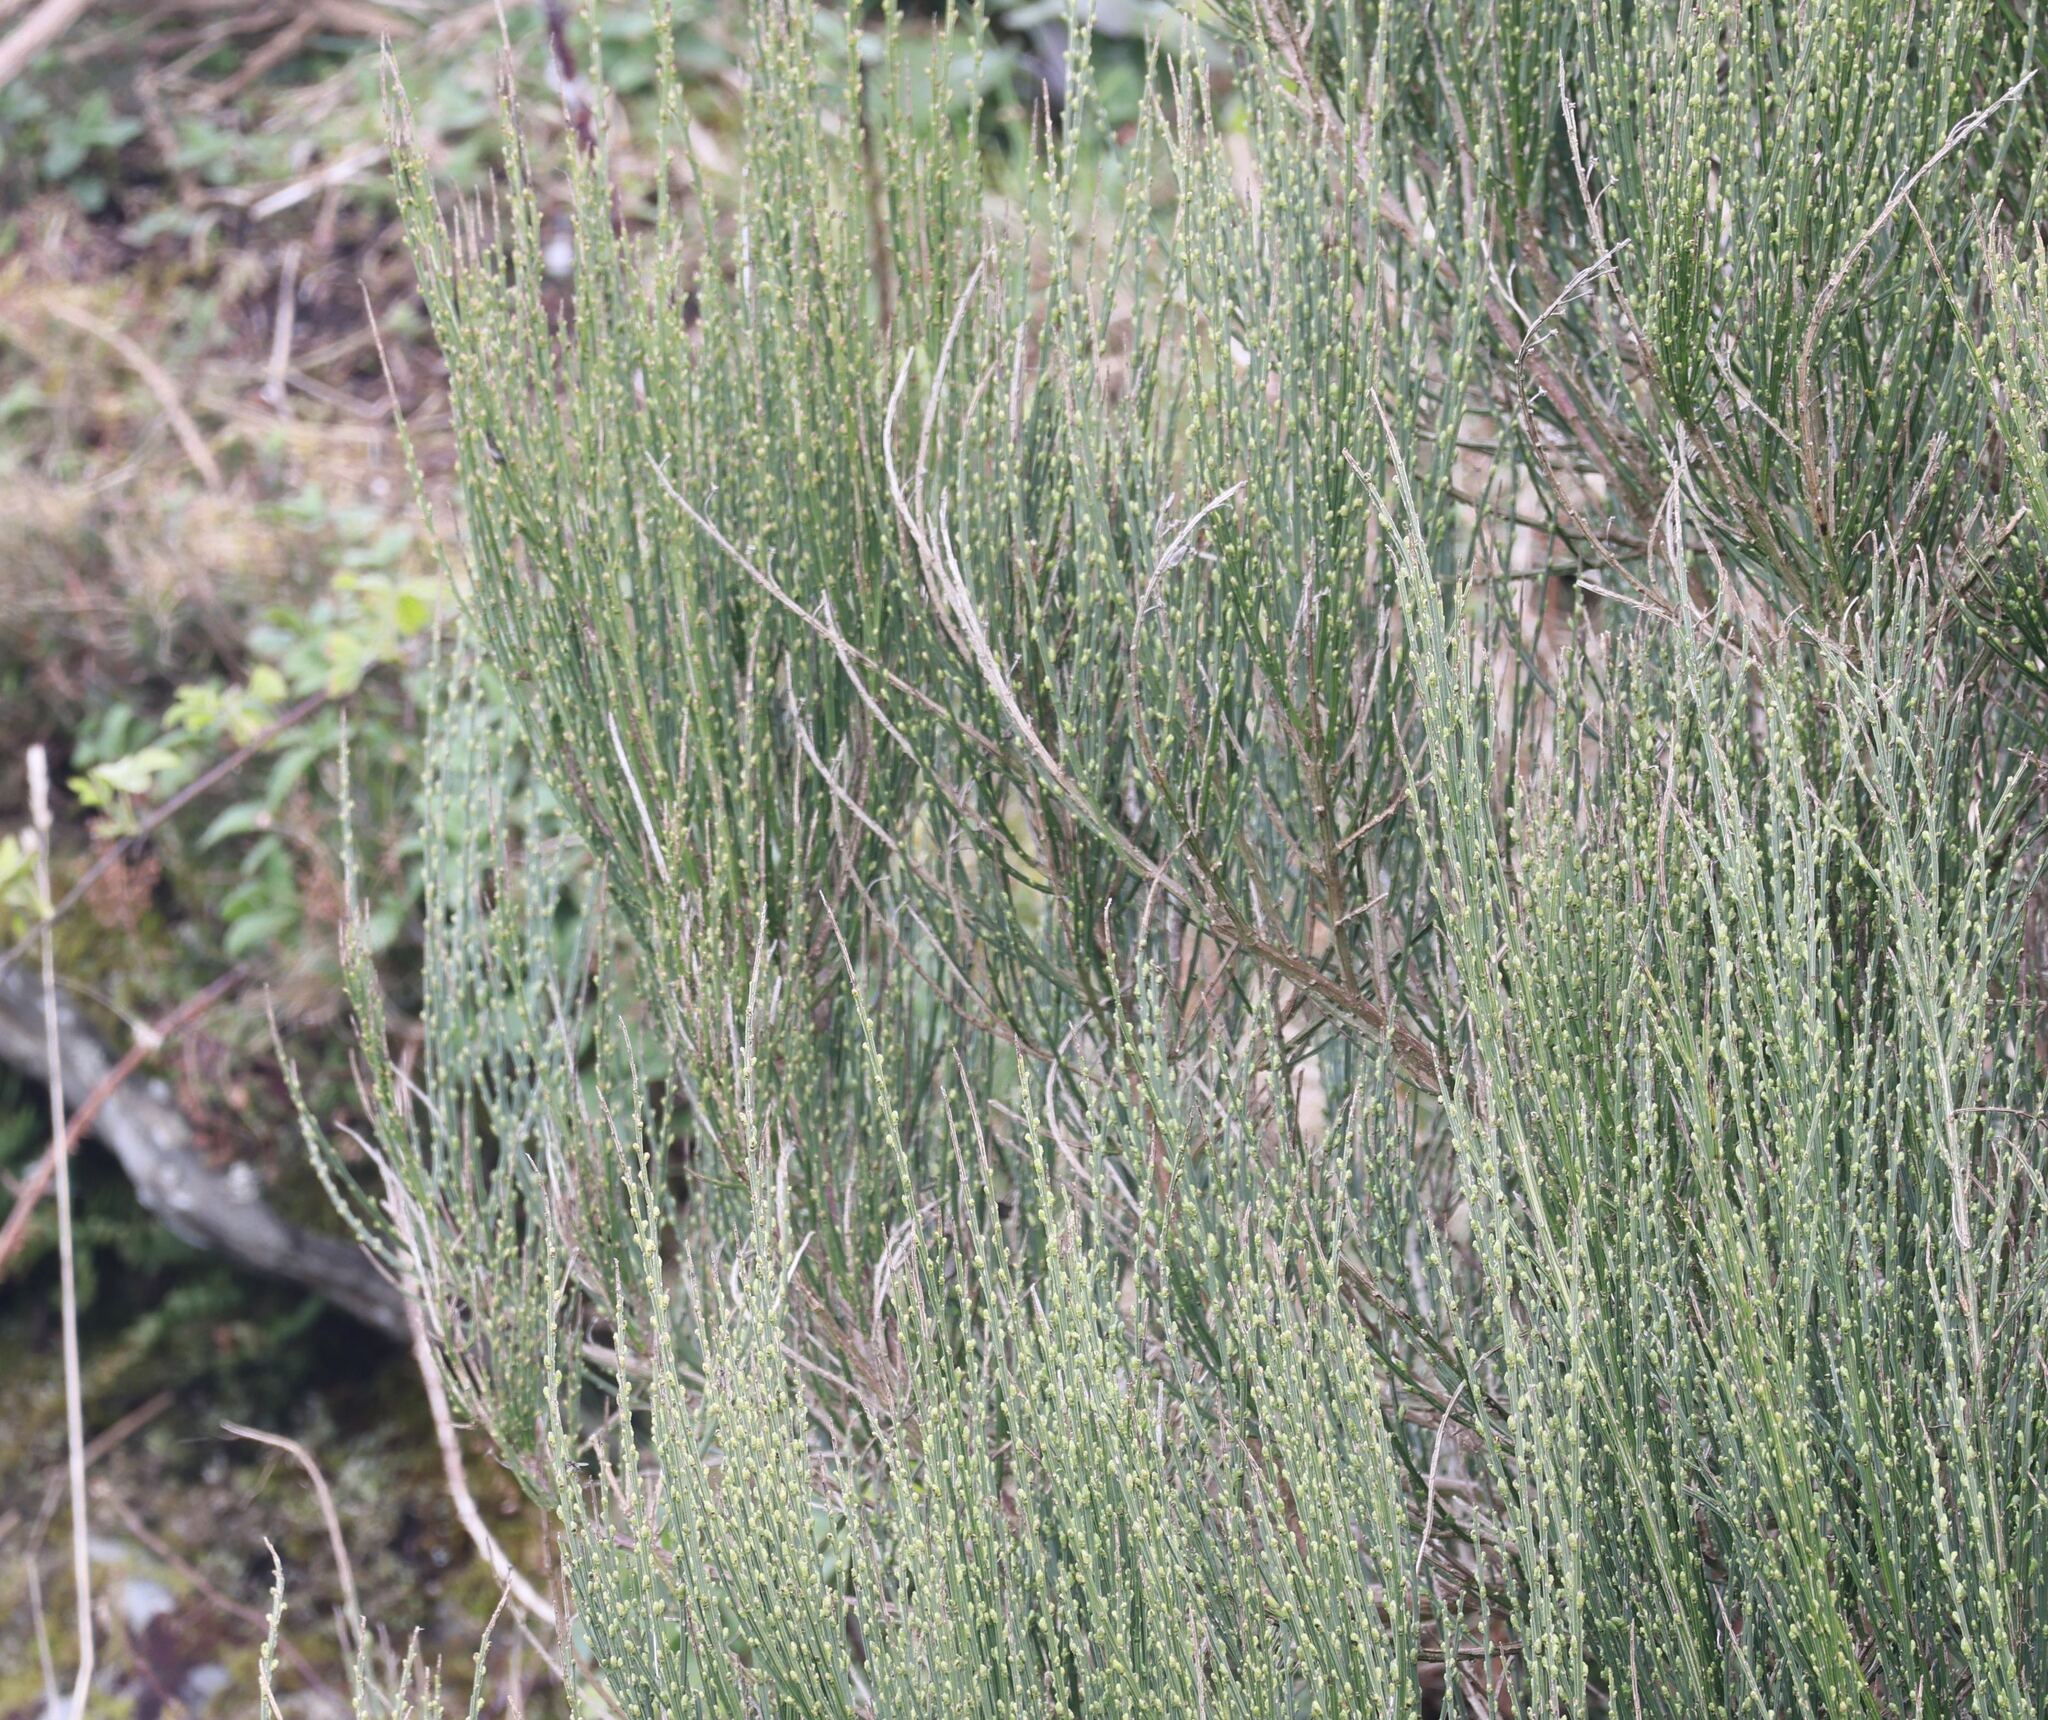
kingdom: Plantae
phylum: Tracheophyta
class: Magnoliopsida
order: Fabales
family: Fabaceae
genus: Cytisus
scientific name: Cytisus scoparius
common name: Scotch broom
